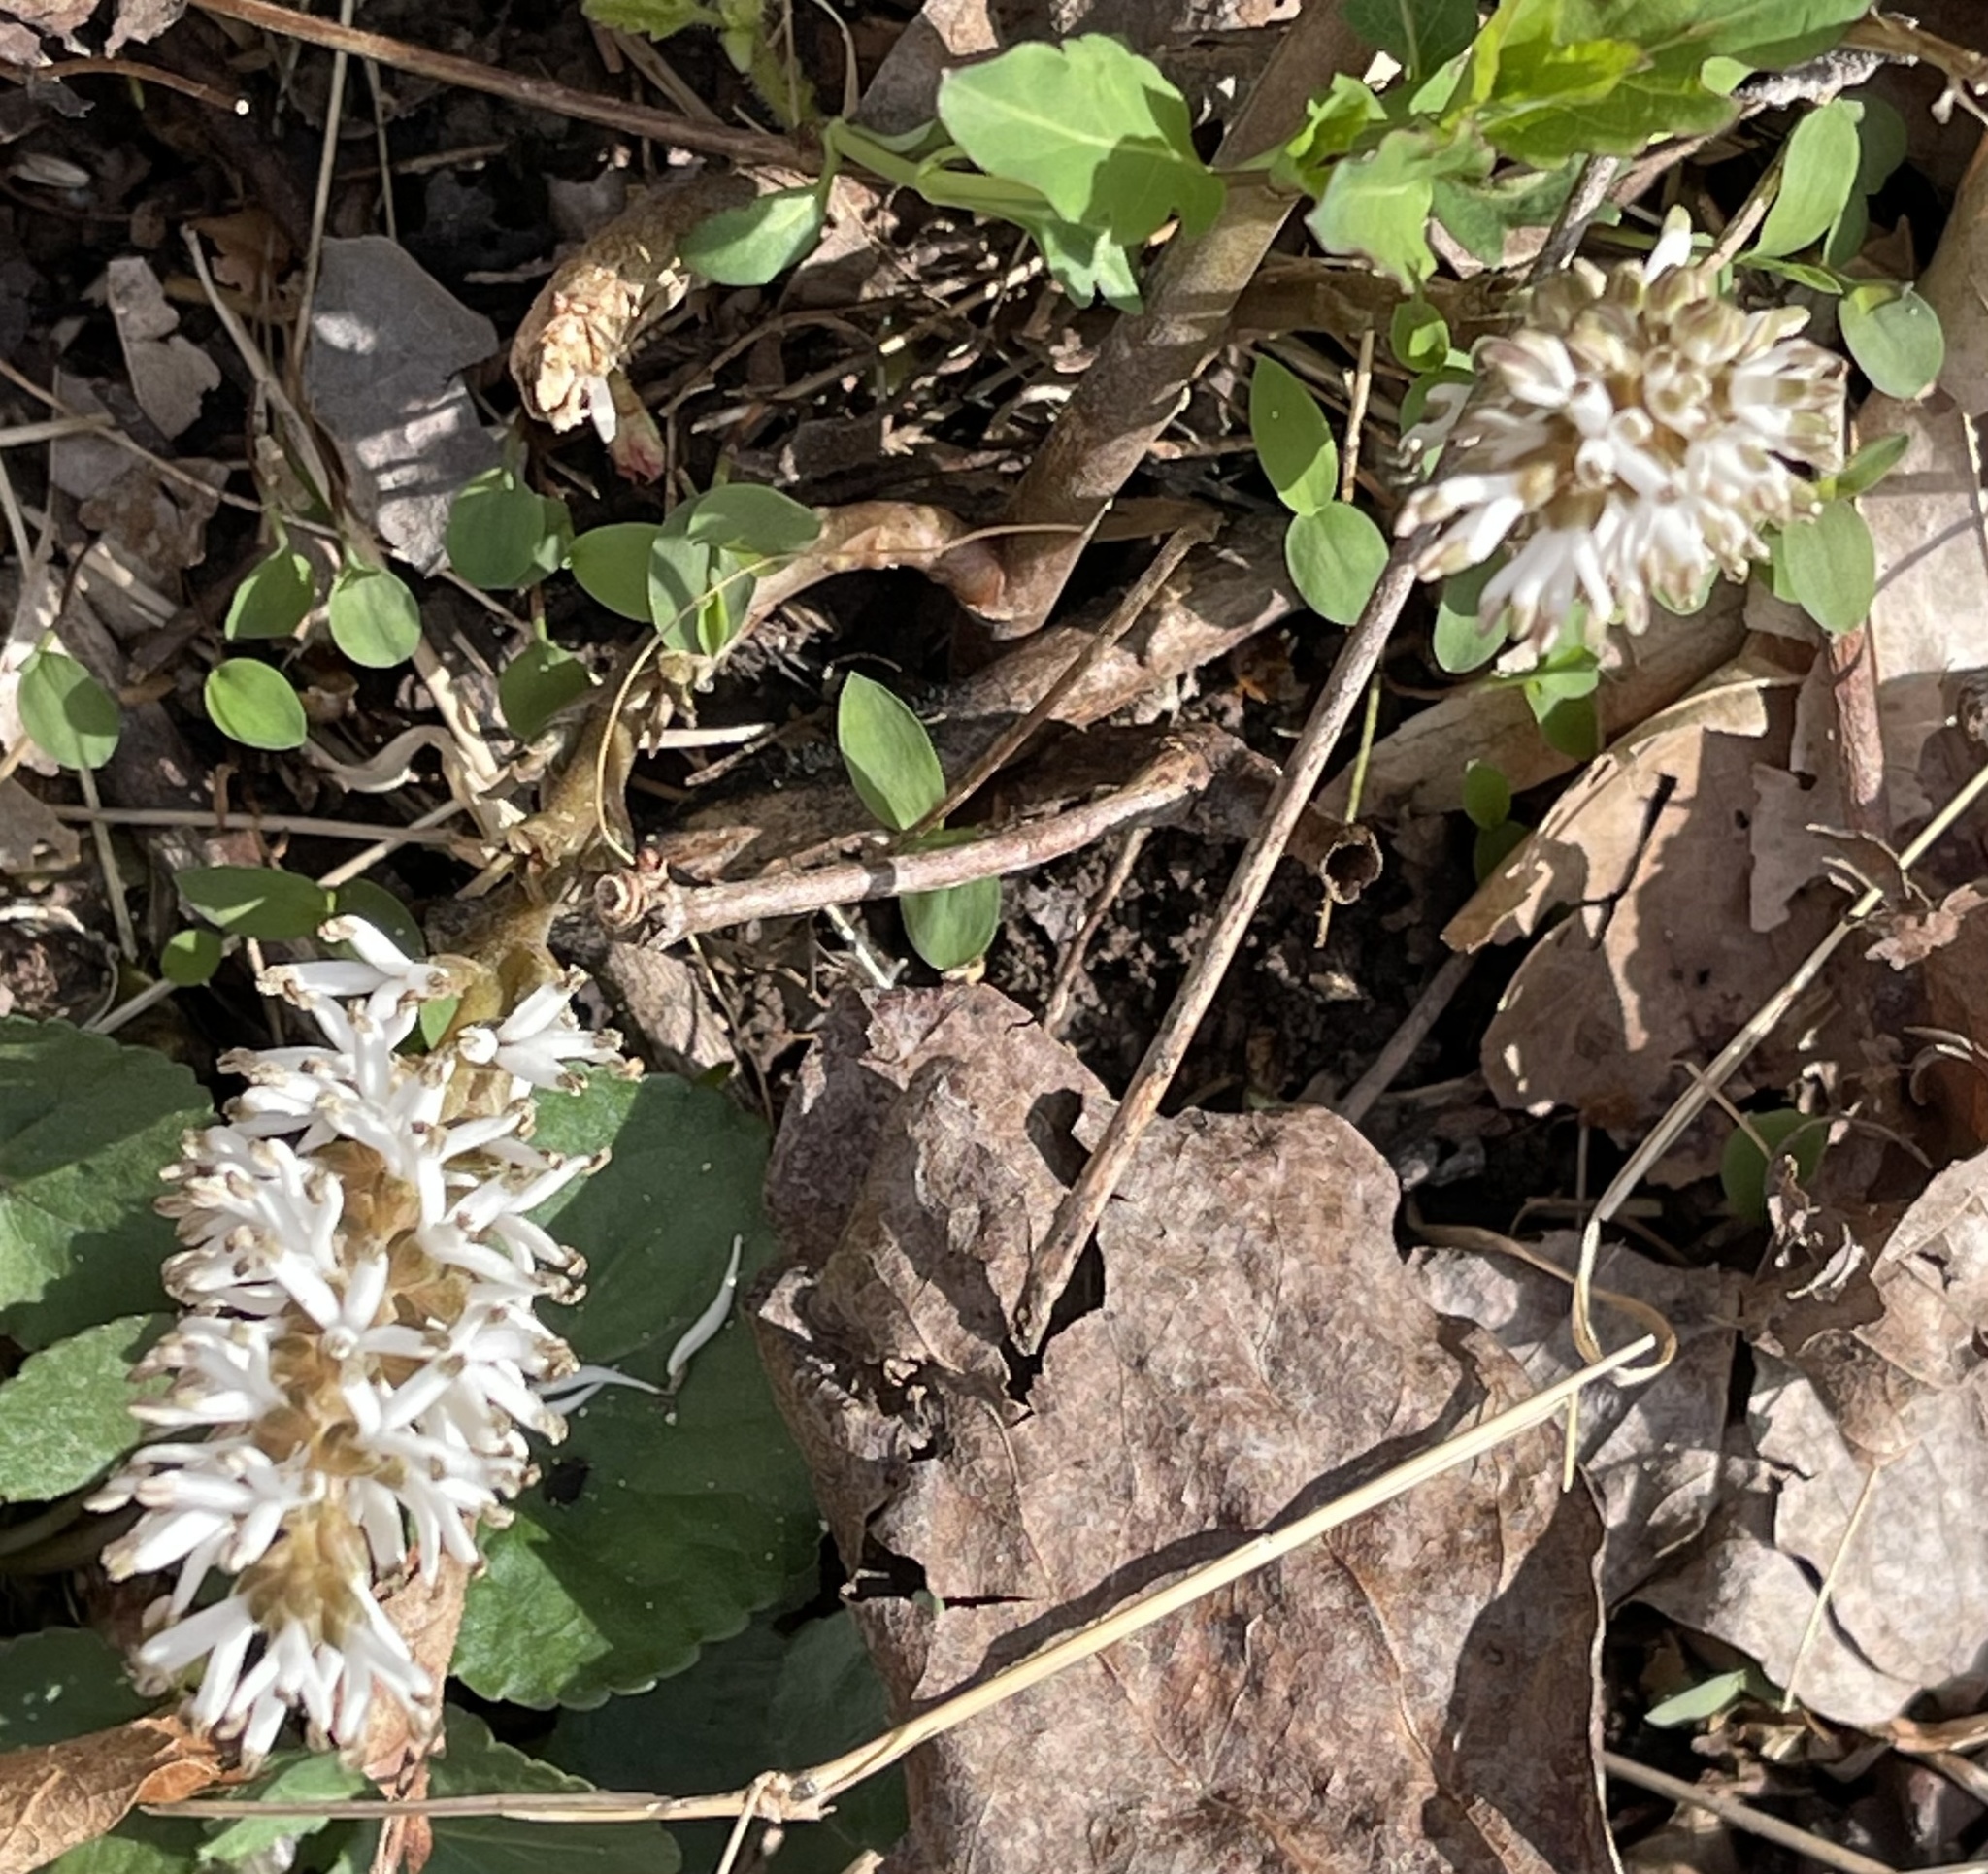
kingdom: Plantae
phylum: Tracheophyta
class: Magnoliopsida
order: Buxales
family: Buxaceae
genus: Pachysandra
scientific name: Pachysandra procumbens
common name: Mountain-spurge
